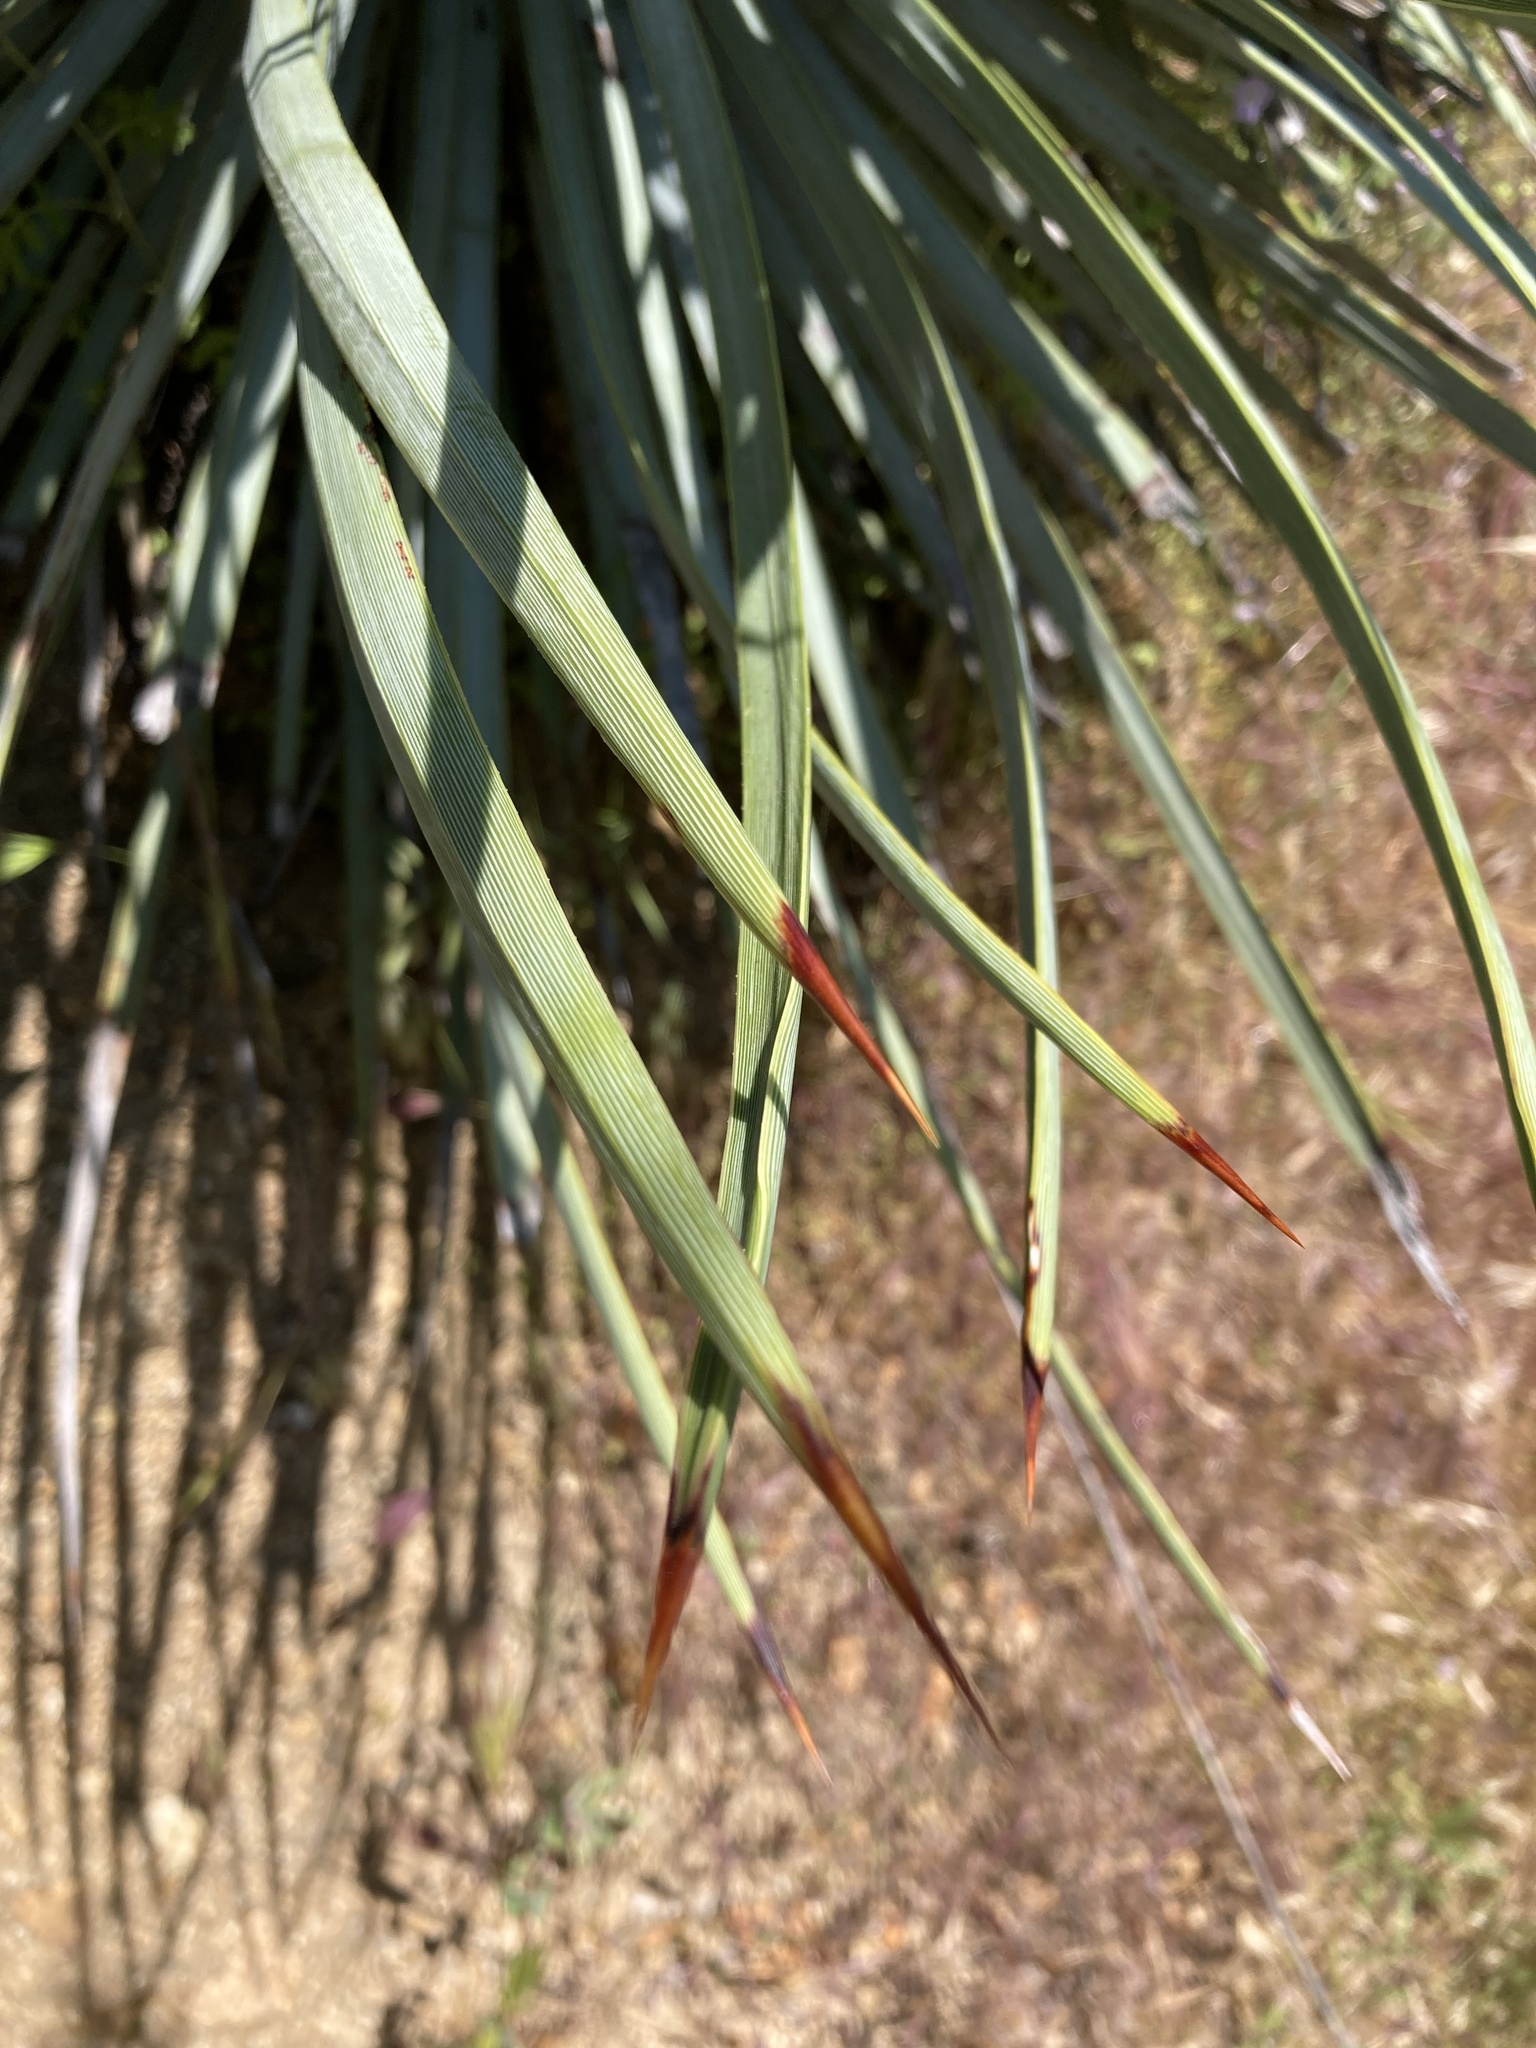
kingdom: Plantae
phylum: Tracheophyta
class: Liliopsida
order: Asparagales
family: Asparagaceae
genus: Hesperoyucca
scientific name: Hesperoyucca whipplei
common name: Our lord's-candle
